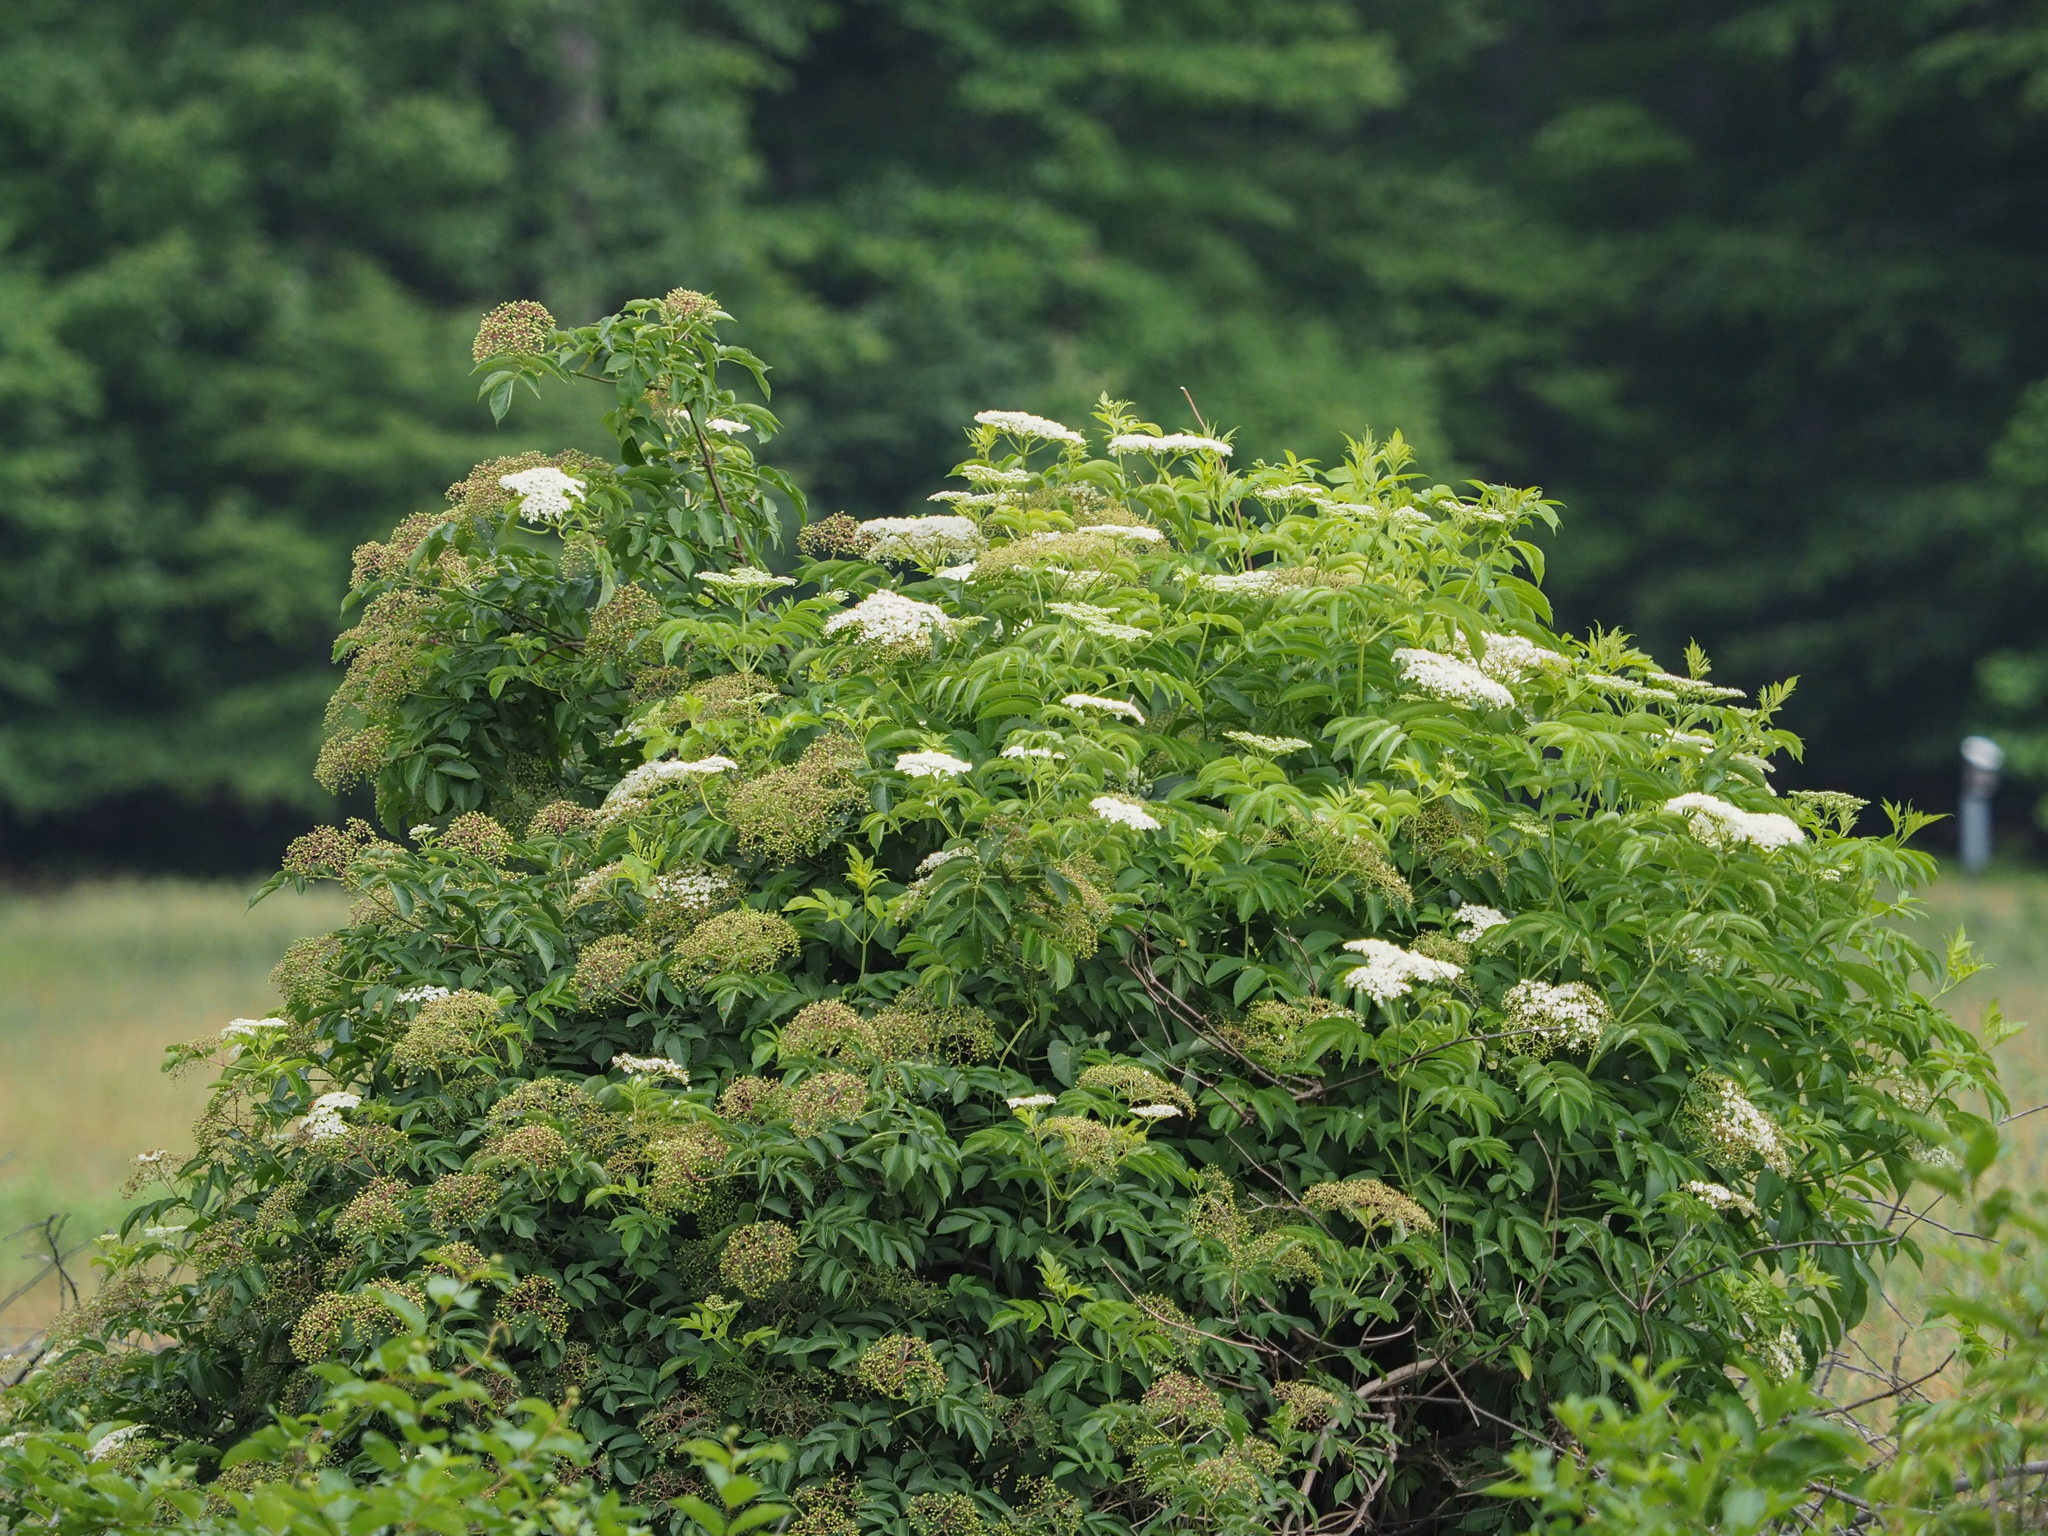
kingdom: Plantae
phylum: Tracheophyta
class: Magnoliopsida
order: Dipsacales
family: Viburnaceae
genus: Sambucus
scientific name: Sambucus canadensis
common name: American elder
